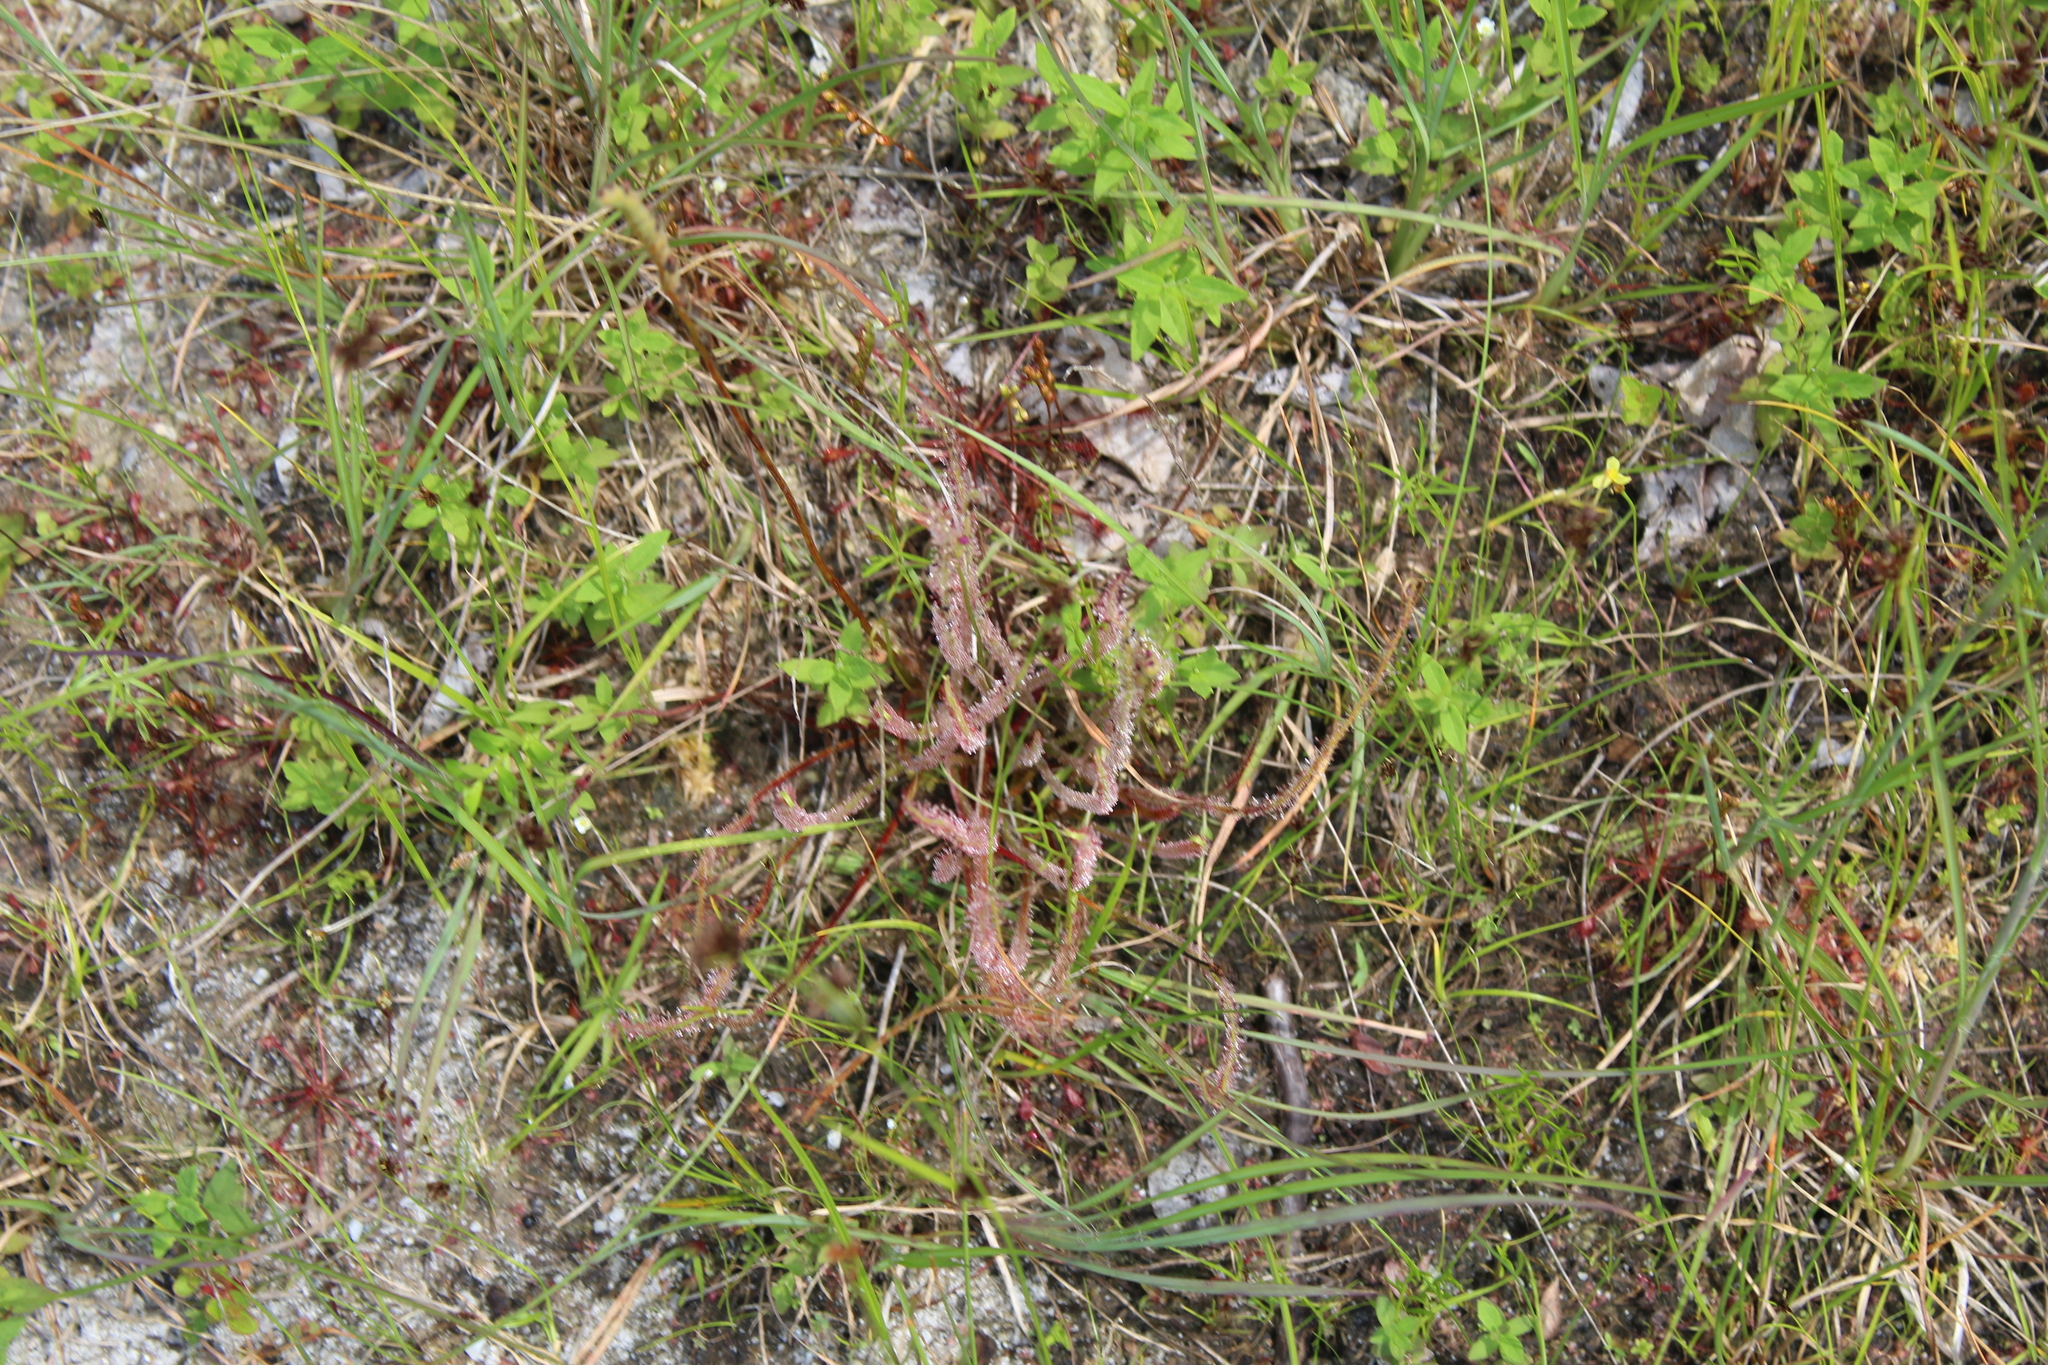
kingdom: Plantae
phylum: Tracheophyta
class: Magnoliopsida
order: Caryophyllales
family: Droseraceae
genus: Drosera
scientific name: Drosera filiformis
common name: Dew-thread
